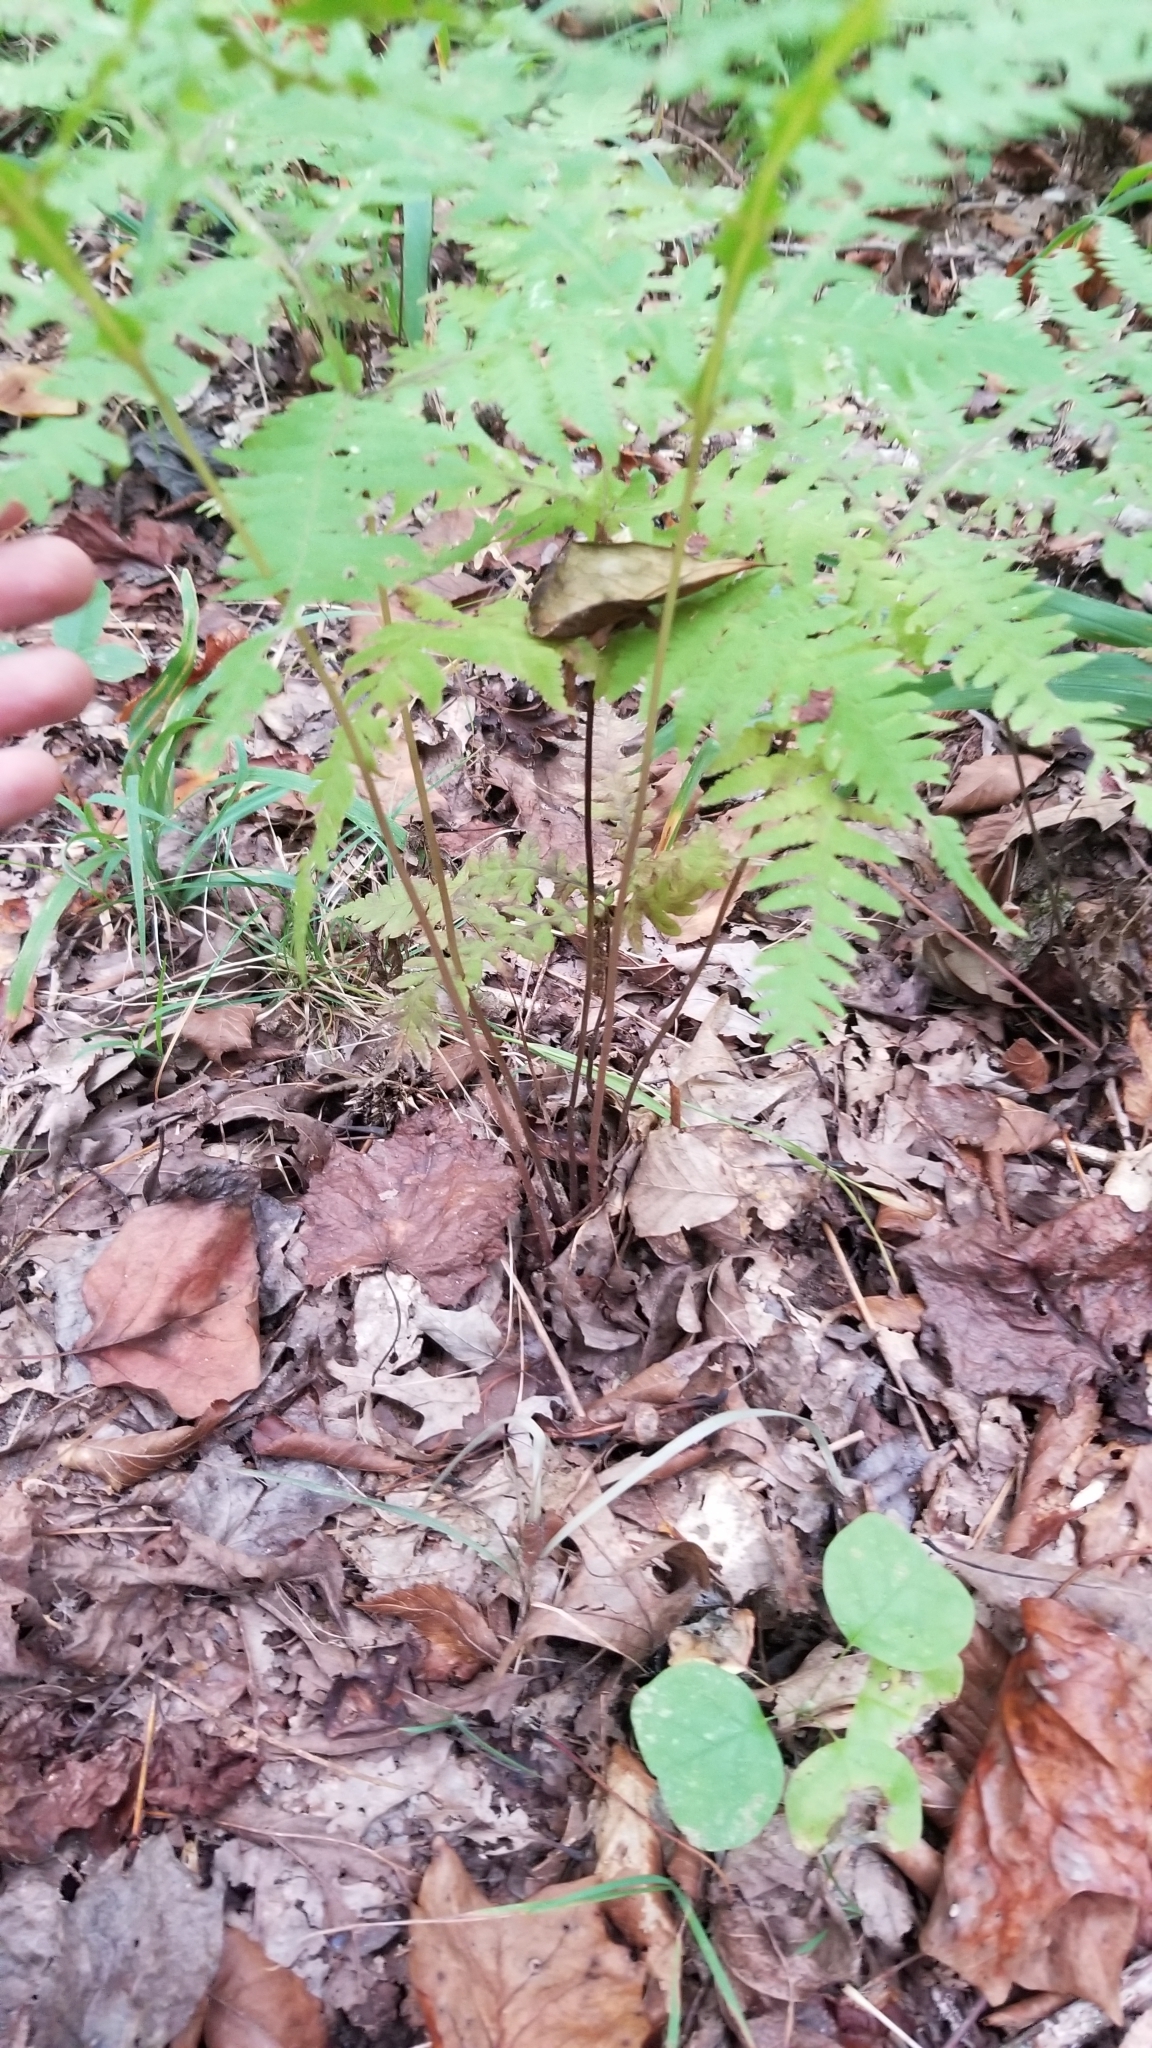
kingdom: Plantae
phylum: Tracheophyta
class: Polypodiopsida
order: Polypodiales
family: Thelypteridaceae
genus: Phegopteris
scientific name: Phegopteris hexagonoptera
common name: Broad beech fern
